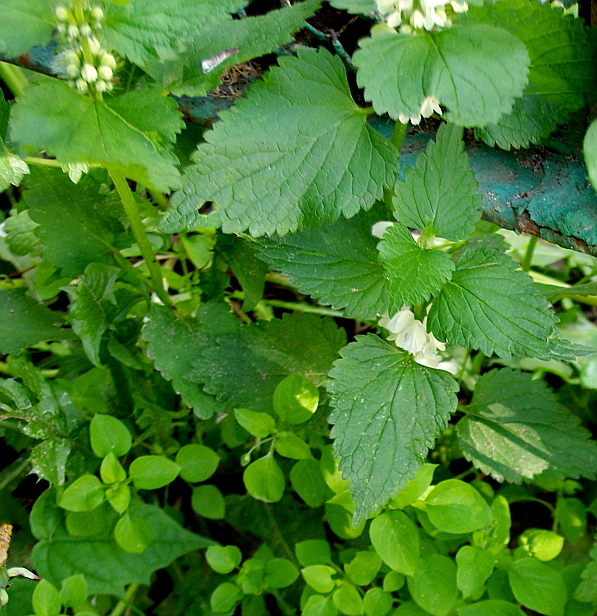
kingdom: Plantae
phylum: Tracheophyta
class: Magnoliopsida
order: Lamiales
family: Lamiaceae
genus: Lamium
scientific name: Lamium album
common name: White dead-nettle
